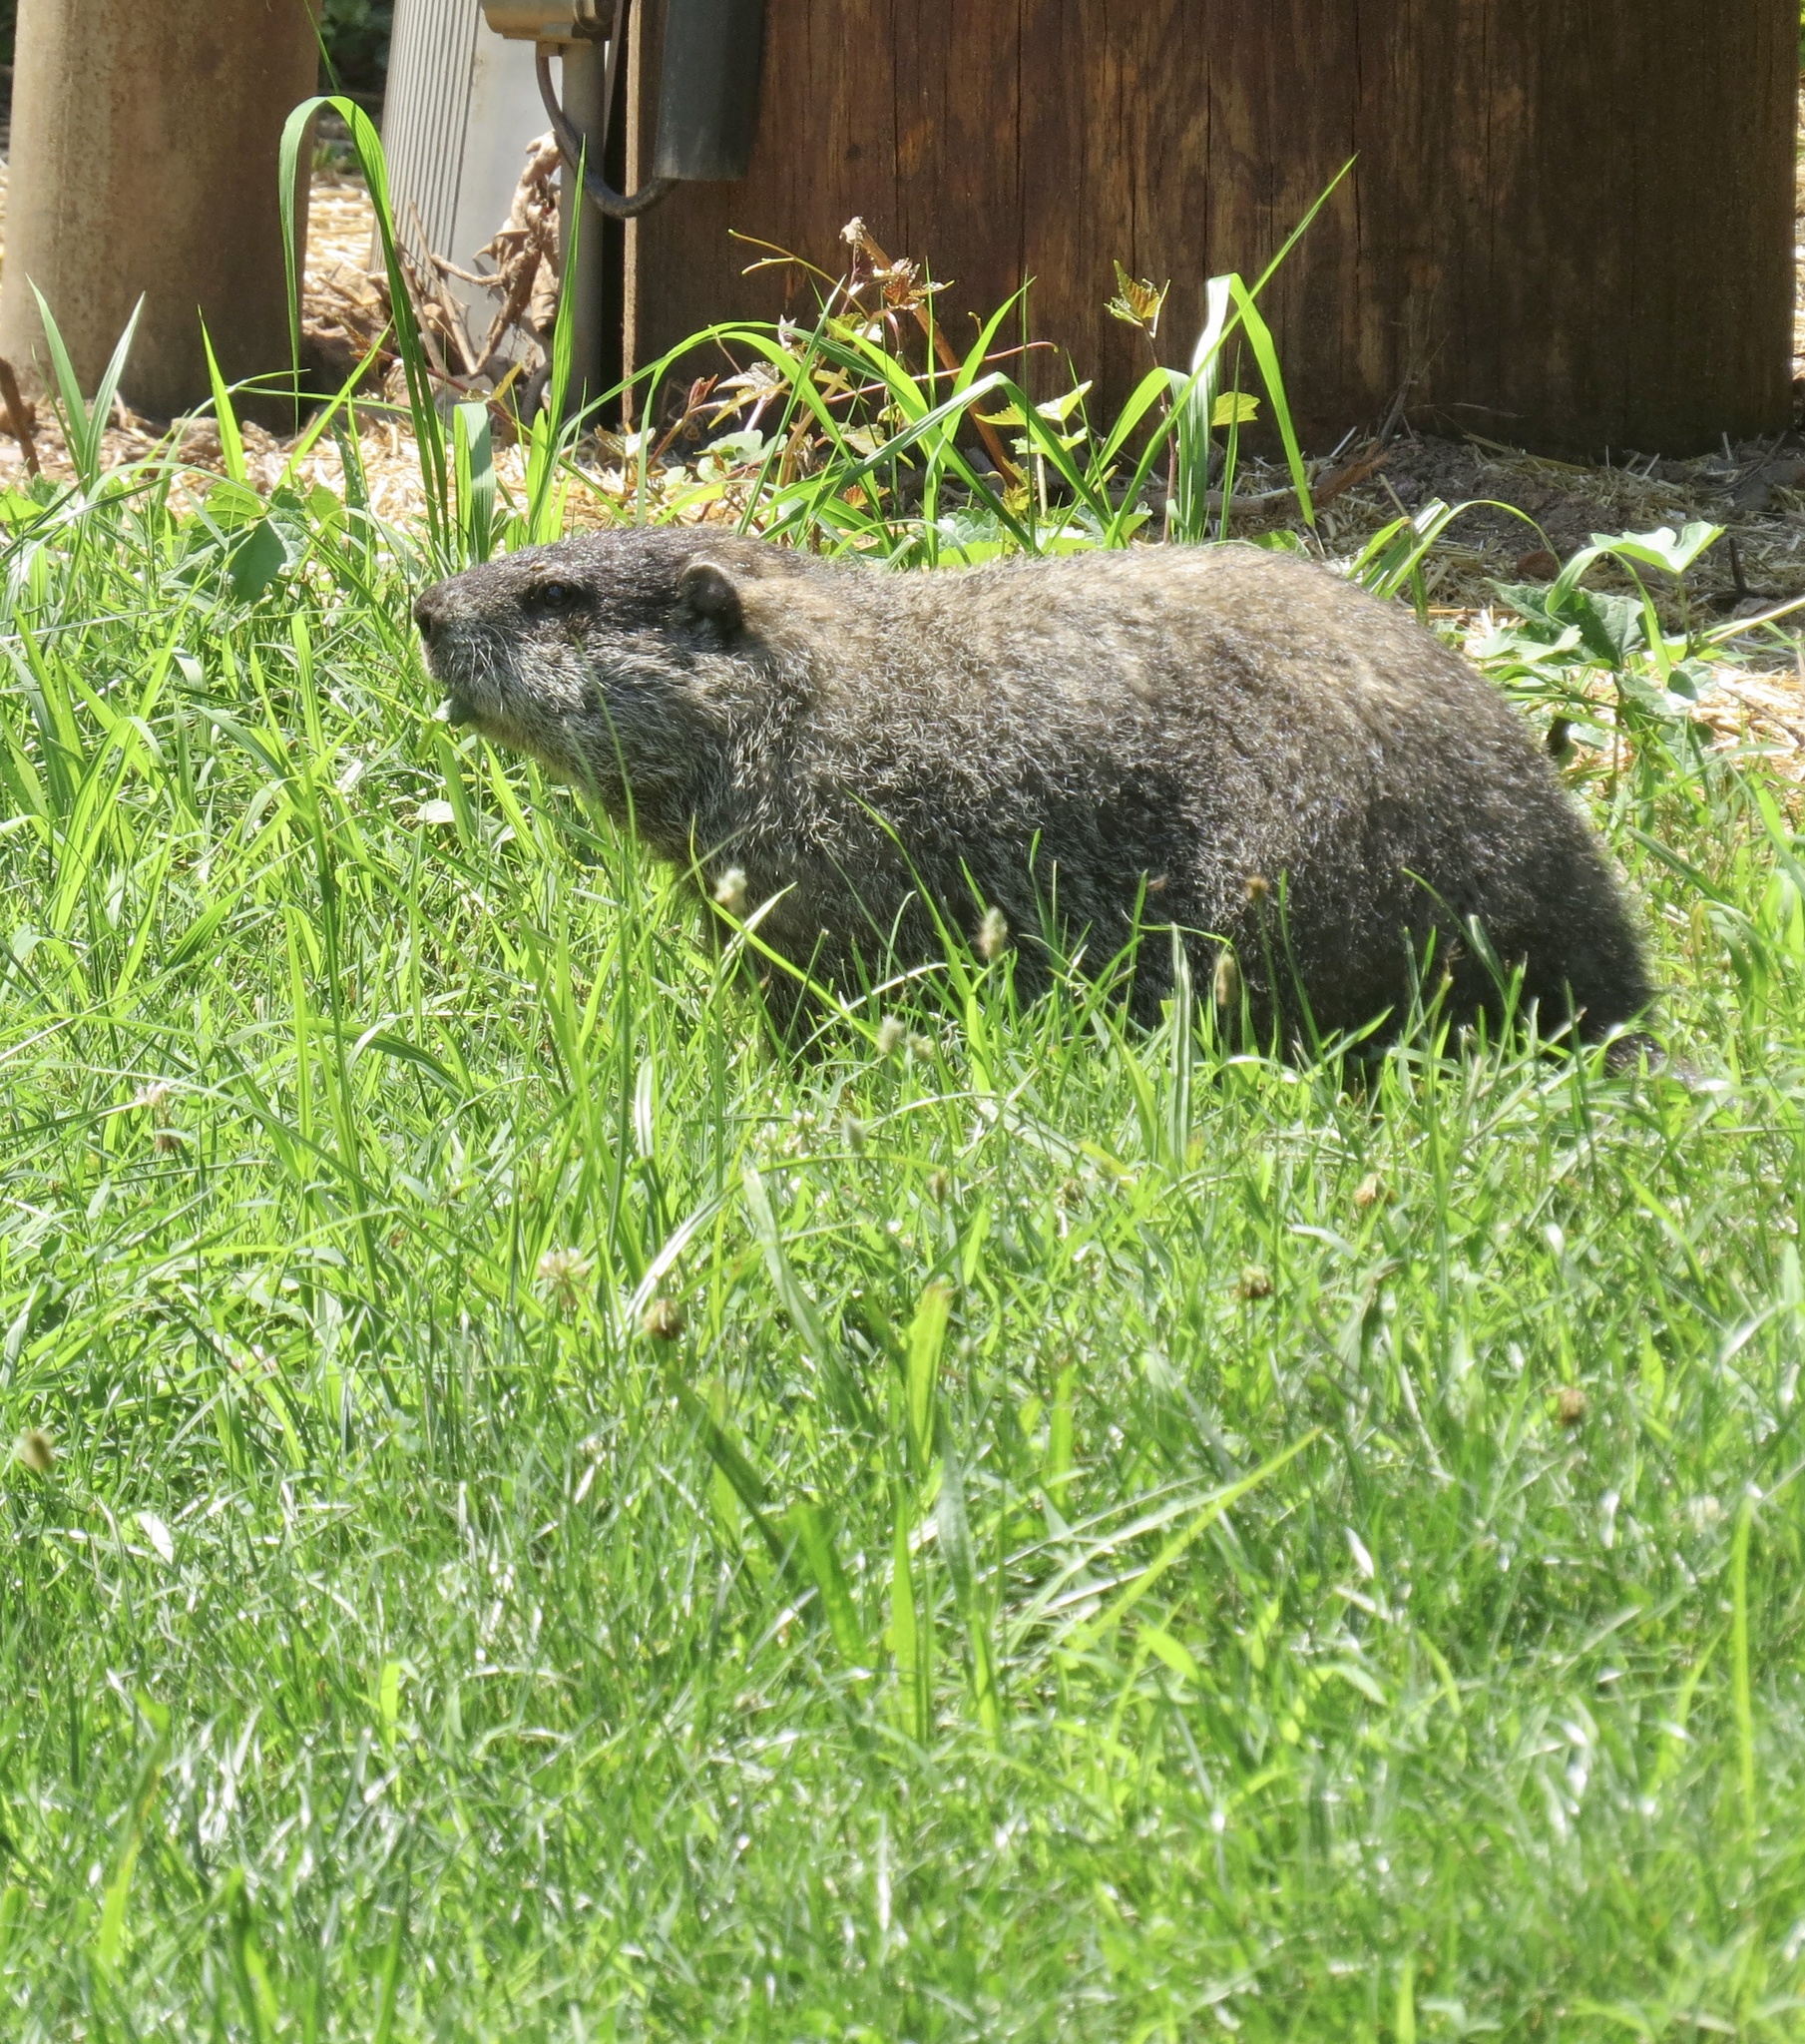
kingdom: Animalia
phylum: Chordata
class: Mammalia
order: Rodentia
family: Sciuridae
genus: Marmota
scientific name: Marmota monax
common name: Groundhog
